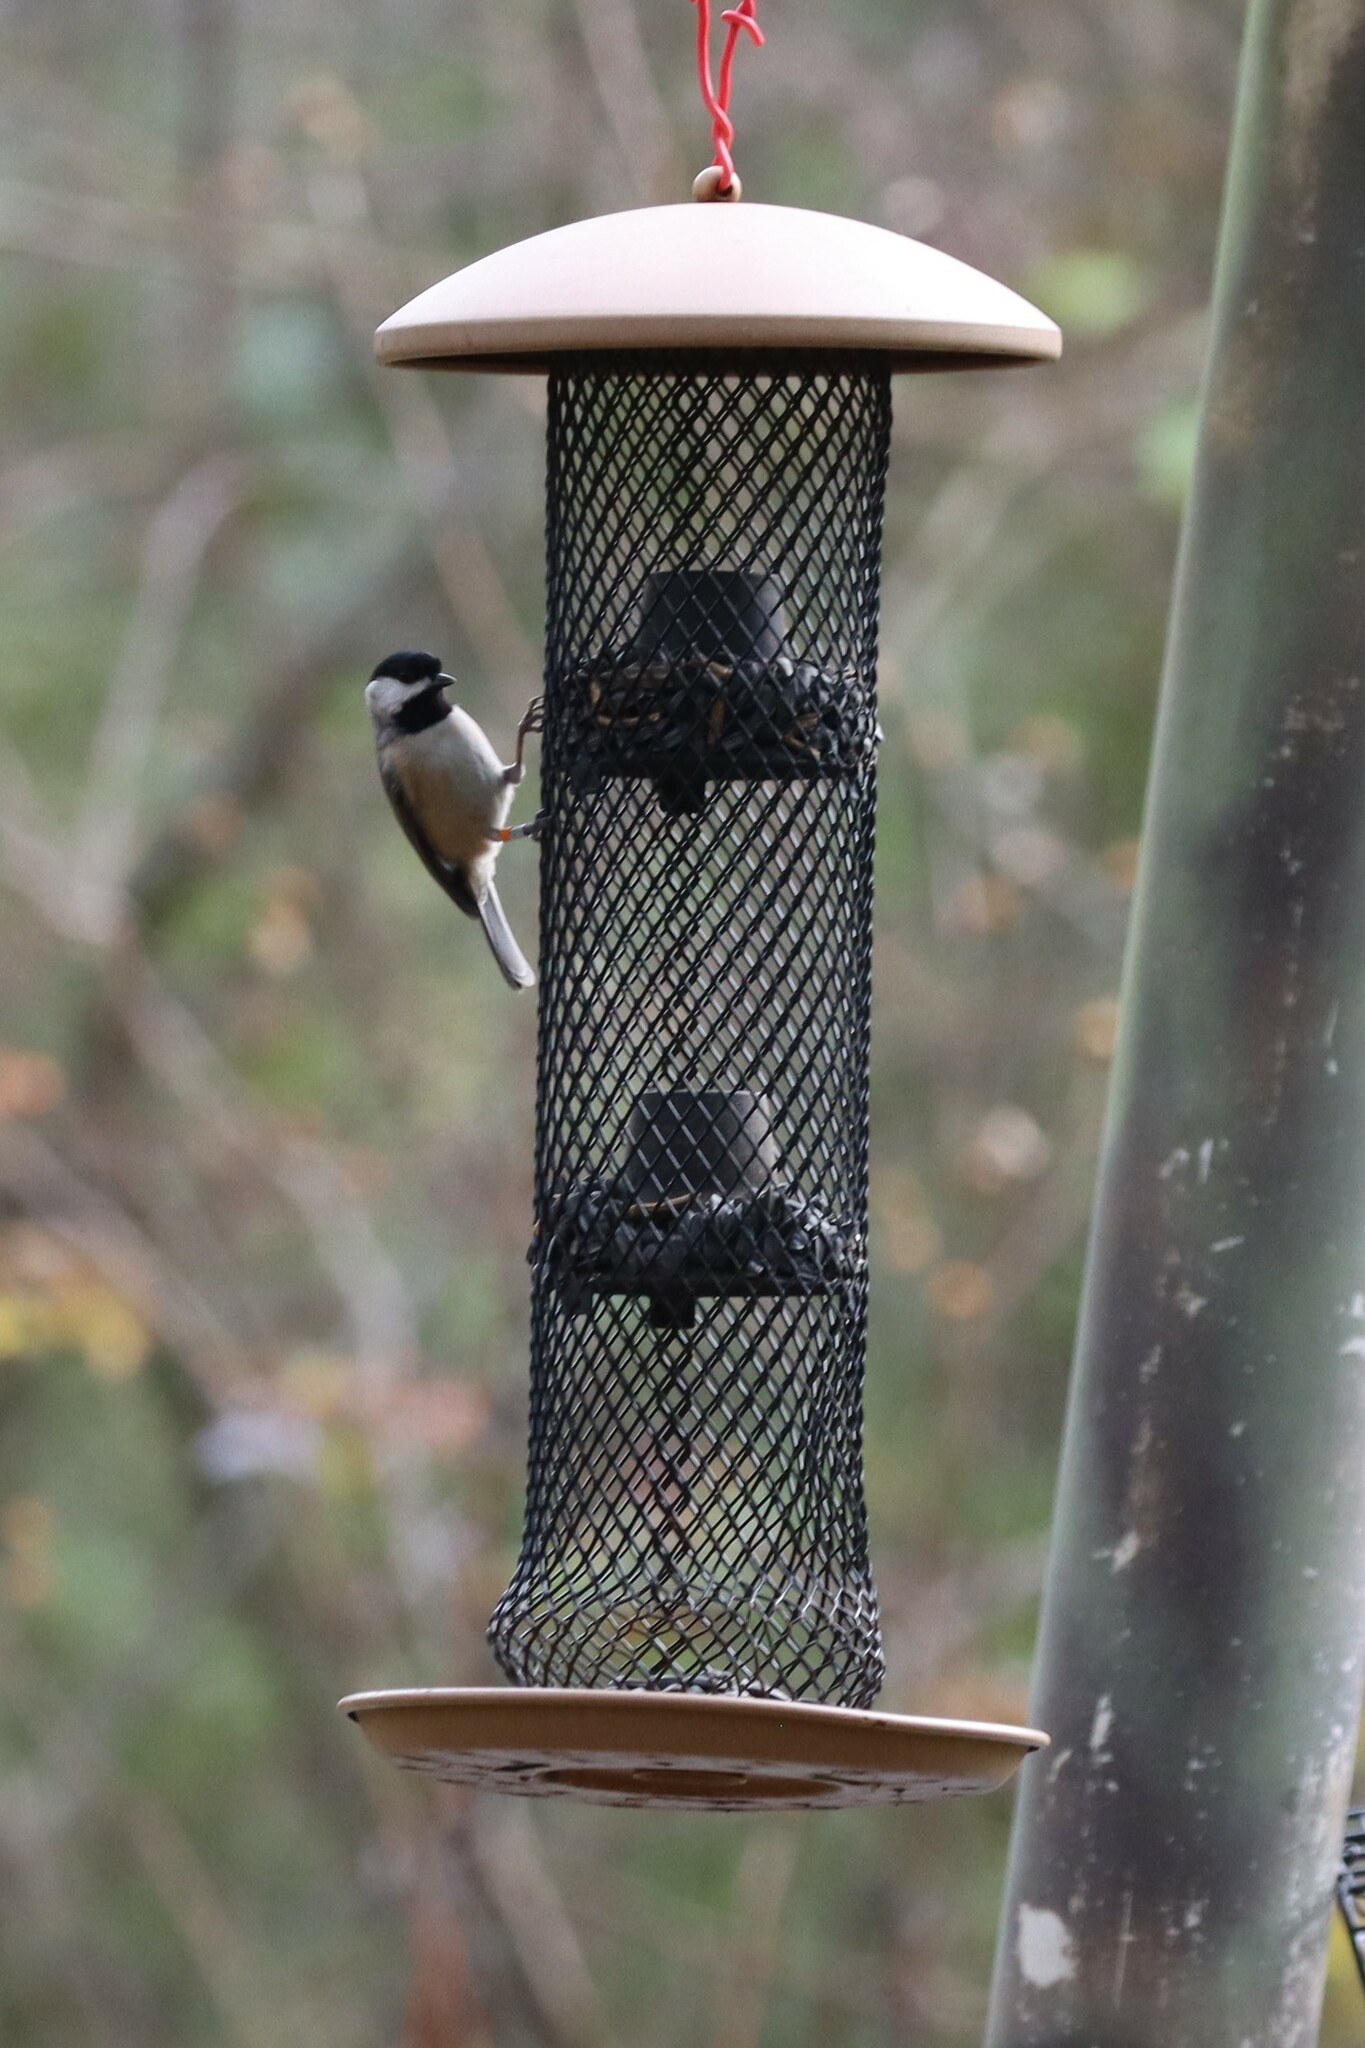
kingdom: Animalia
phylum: Chordata
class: Aves
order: Passeriformes
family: Paridae
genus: Poecile
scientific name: Poecile carolinensis
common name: Carolina chickadee
